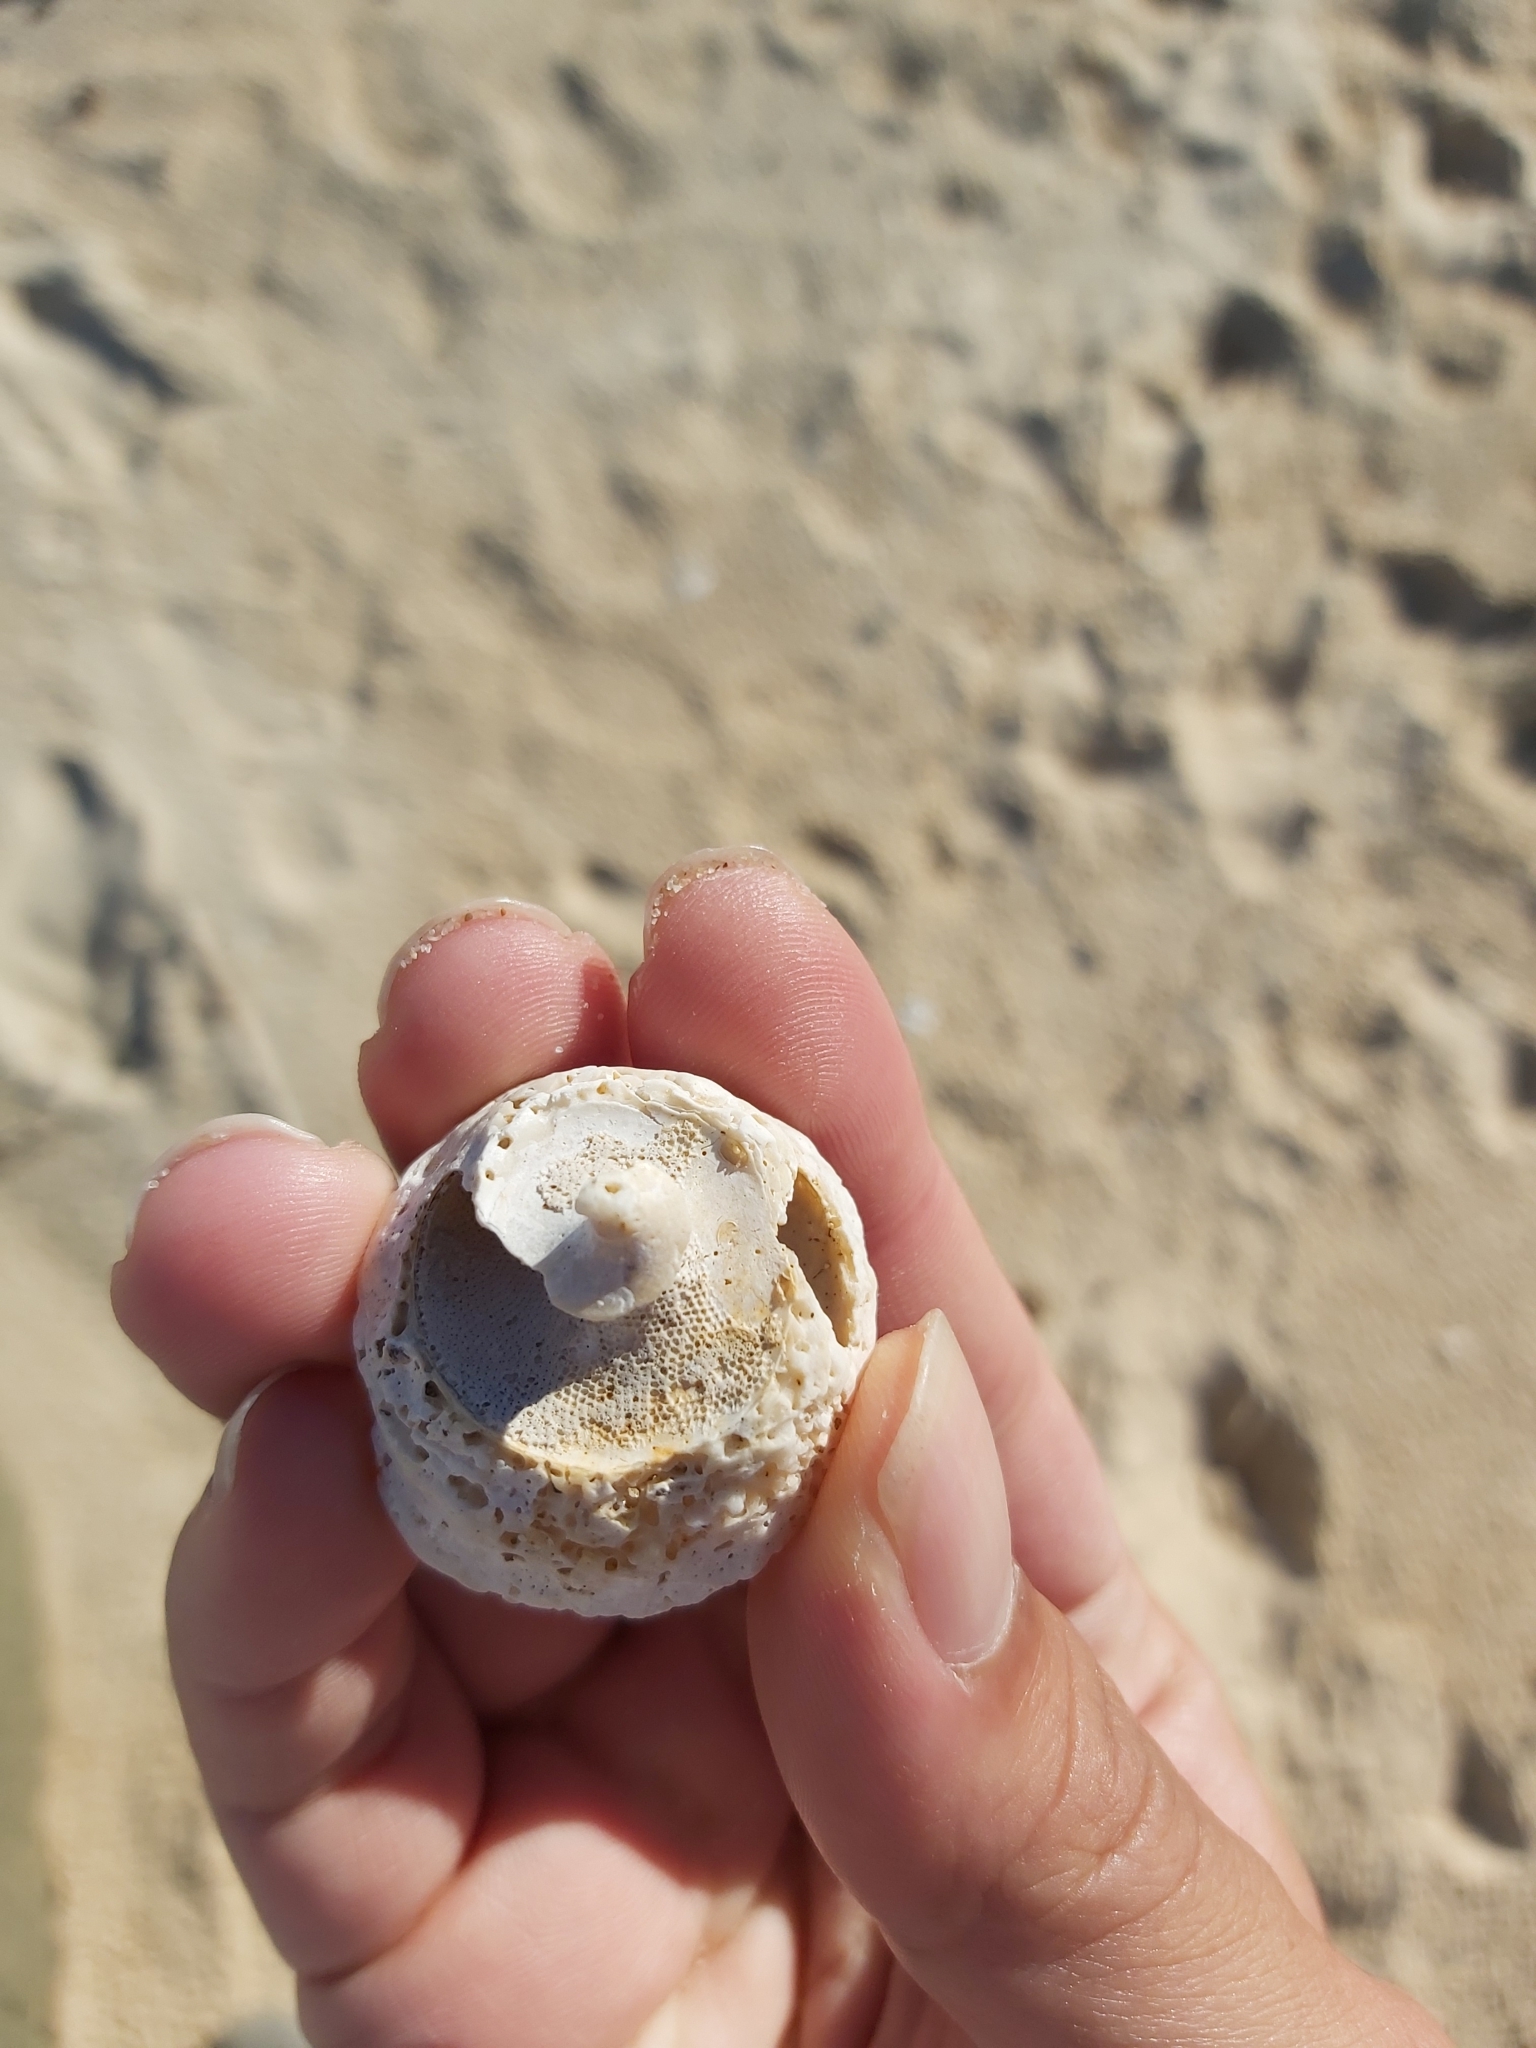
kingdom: Animalia
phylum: Mollusca
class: Gastropoda
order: Trochida
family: Turbinidae
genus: Astralium
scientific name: Astralium tentoriiforme
